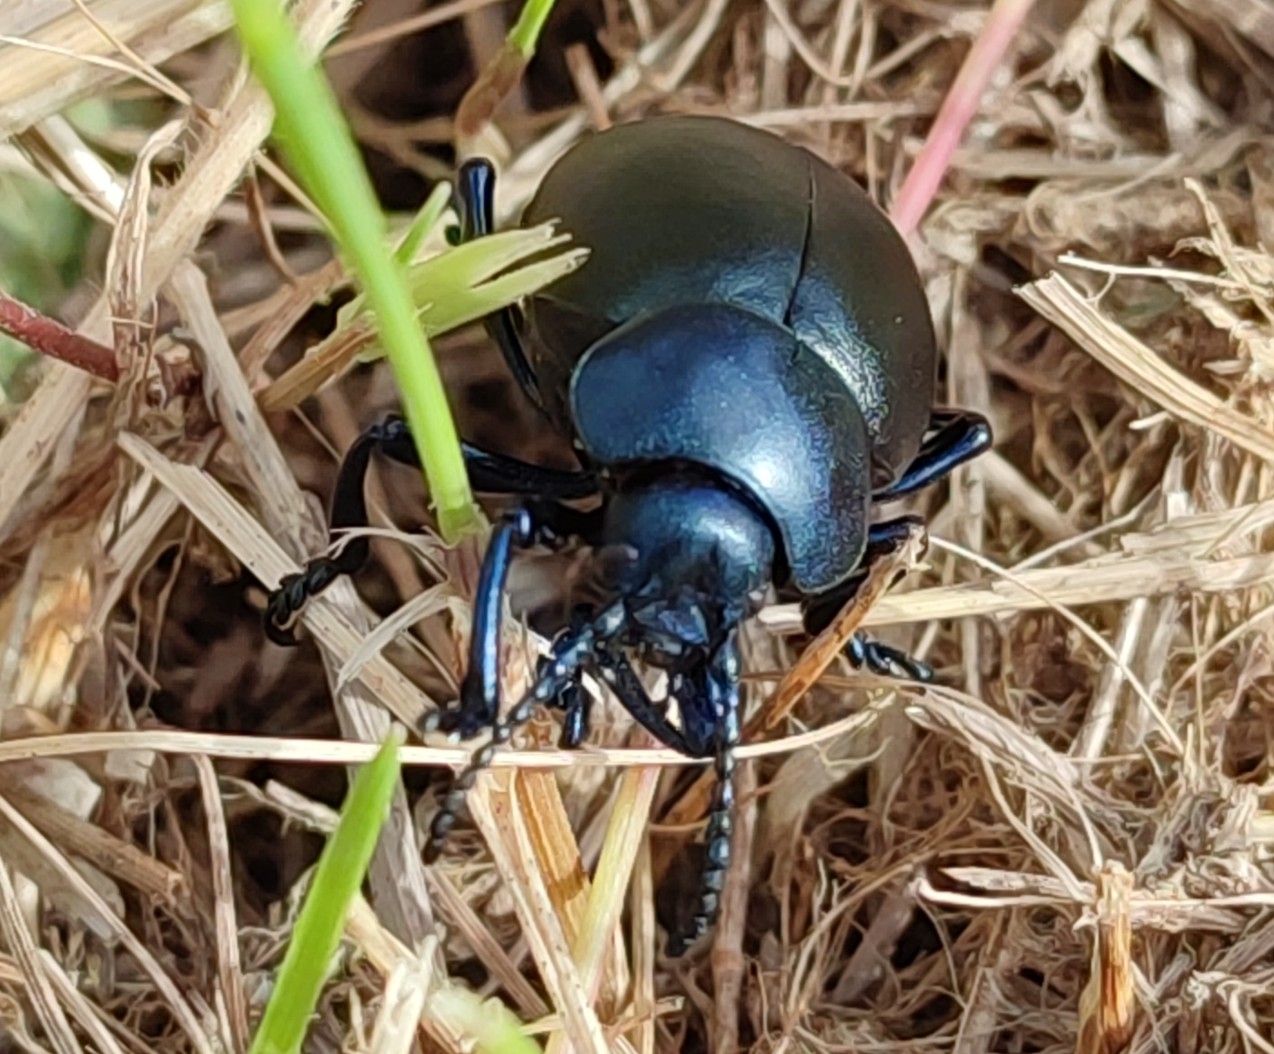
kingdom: Animalia
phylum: Arthropoda
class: Insecta
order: Coleoptera
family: Chrysomelidae
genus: Timarcha
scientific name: Timarcha tenebricosa
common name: Bloody-nosed beetle
